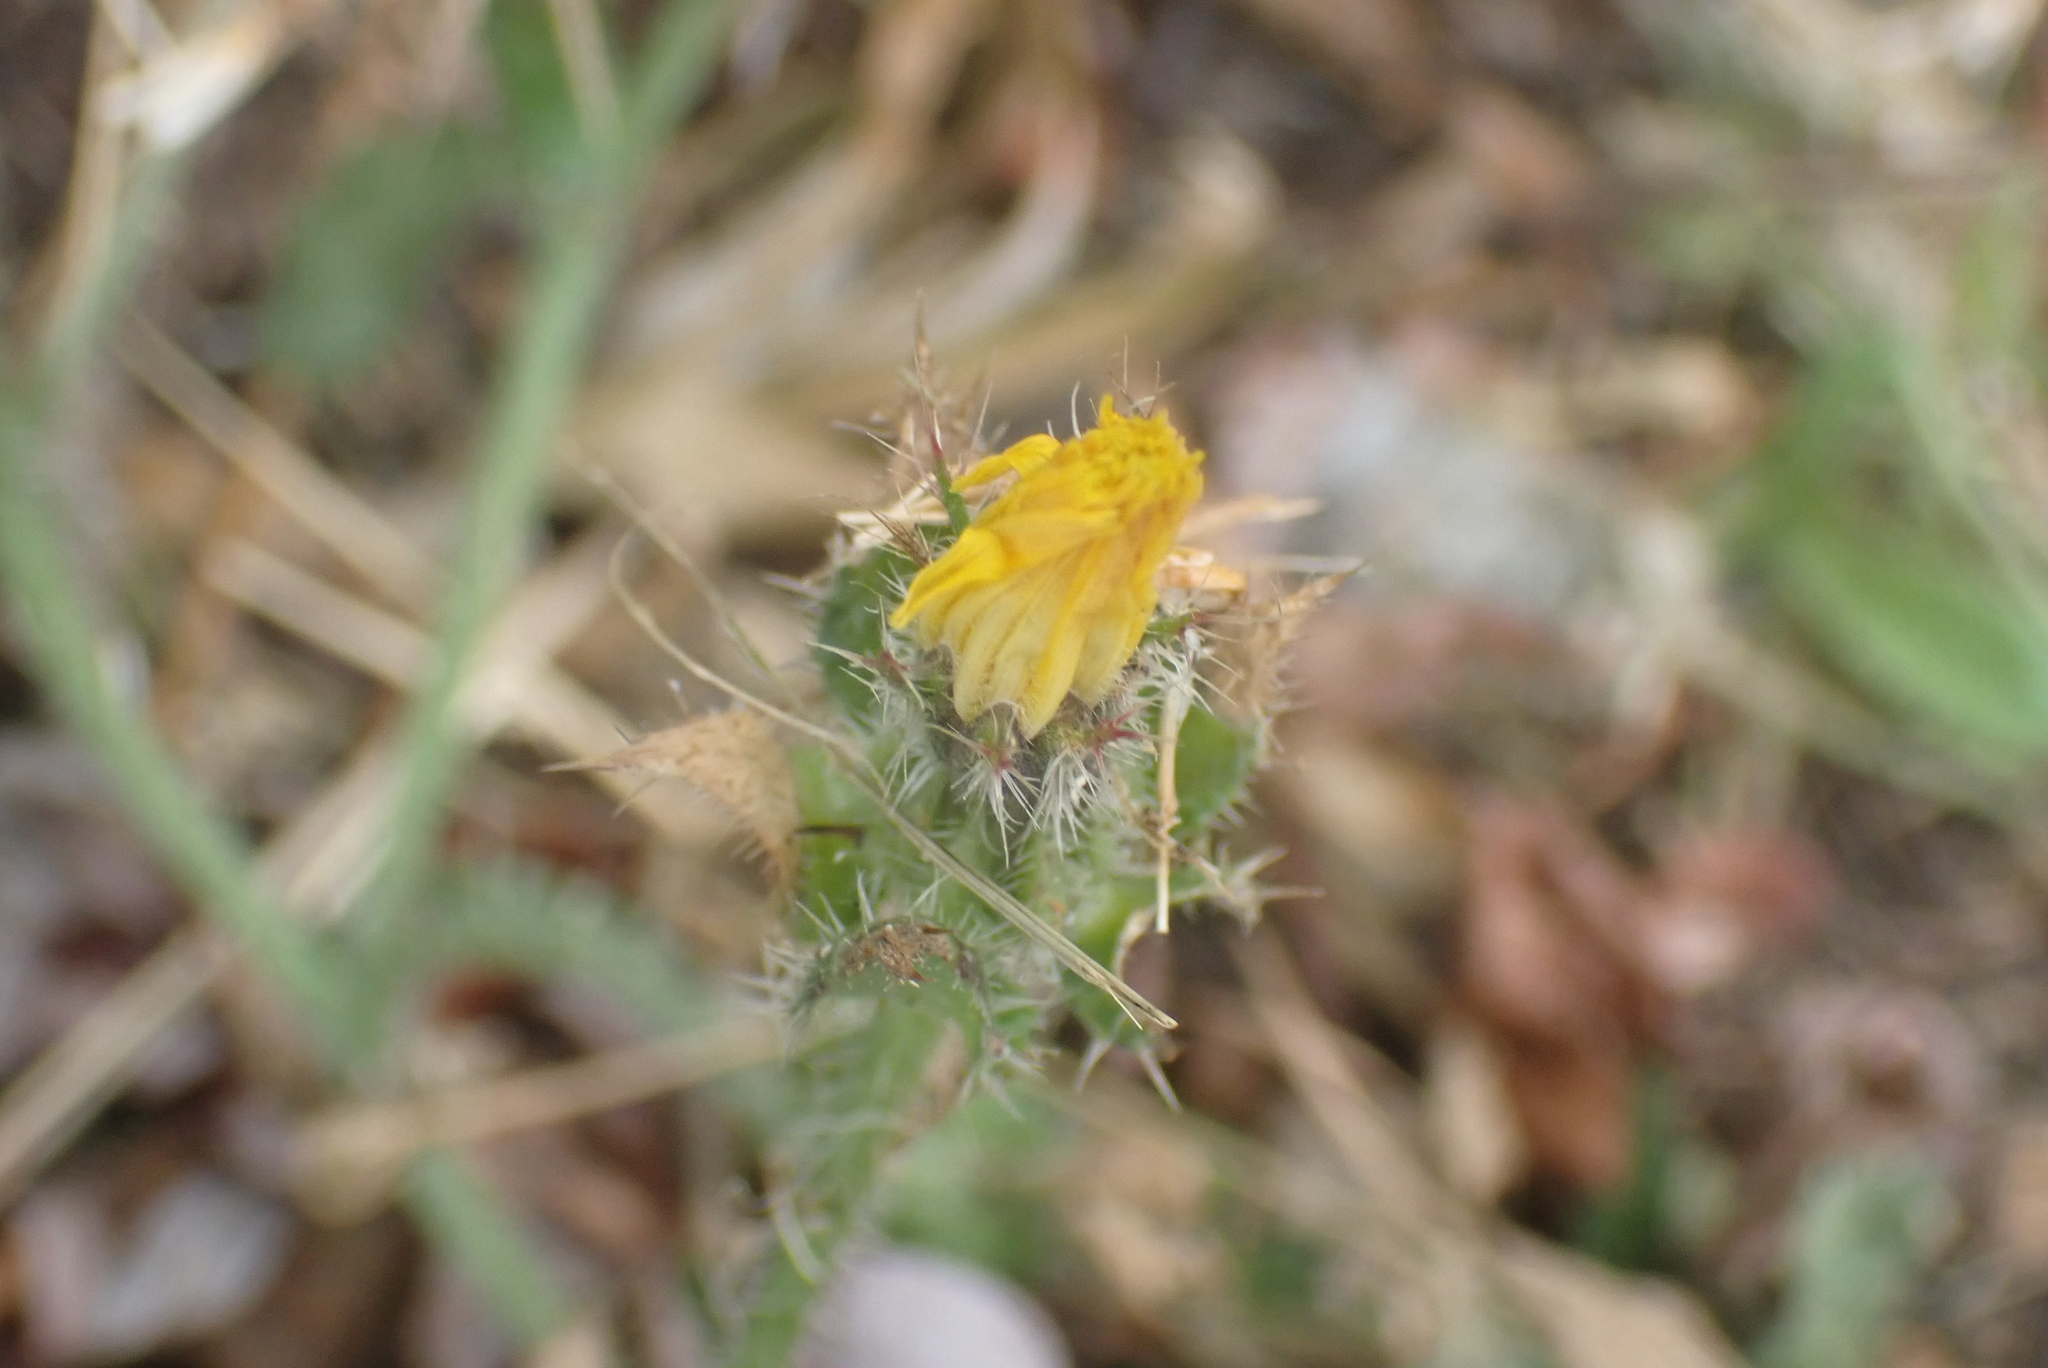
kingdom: Plantae
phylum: Tracheophyta
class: Magnoliopsida
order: Asterales
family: Asteraceae
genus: Helminthotheca
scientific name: Helminthotheca echioides
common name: Ox-tongue
